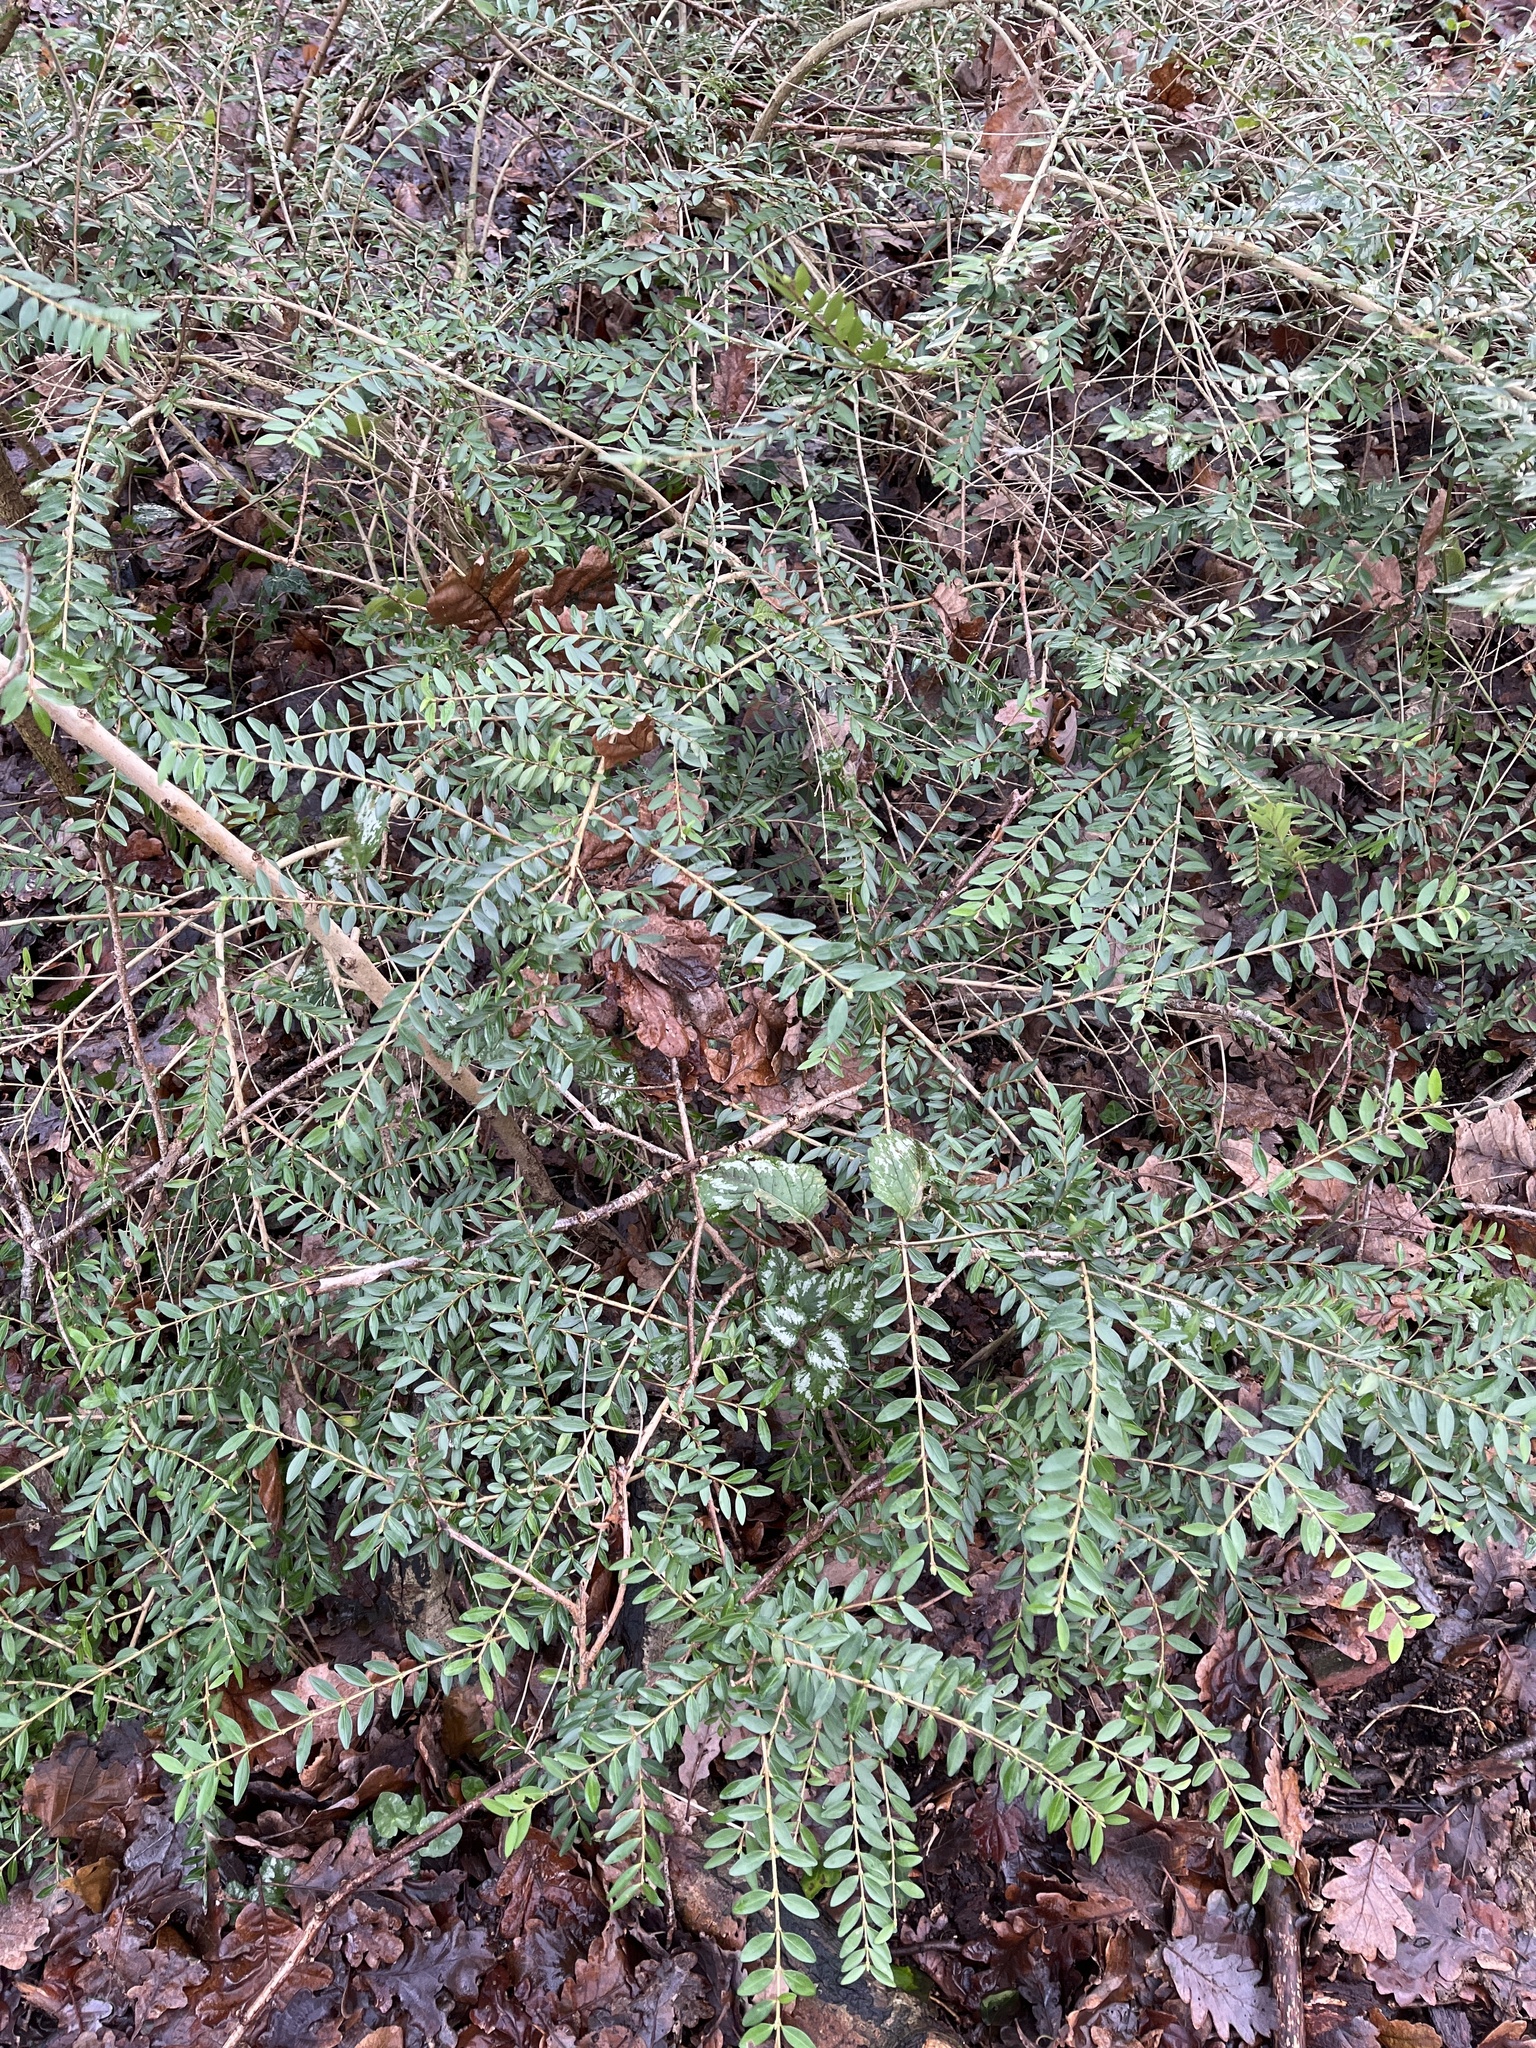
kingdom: Plantae
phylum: Tracheophyta
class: Magnoliopsida
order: Dipsacales
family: Caprifoliaceae
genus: Lonicera
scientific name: Lonicera ligustrina
